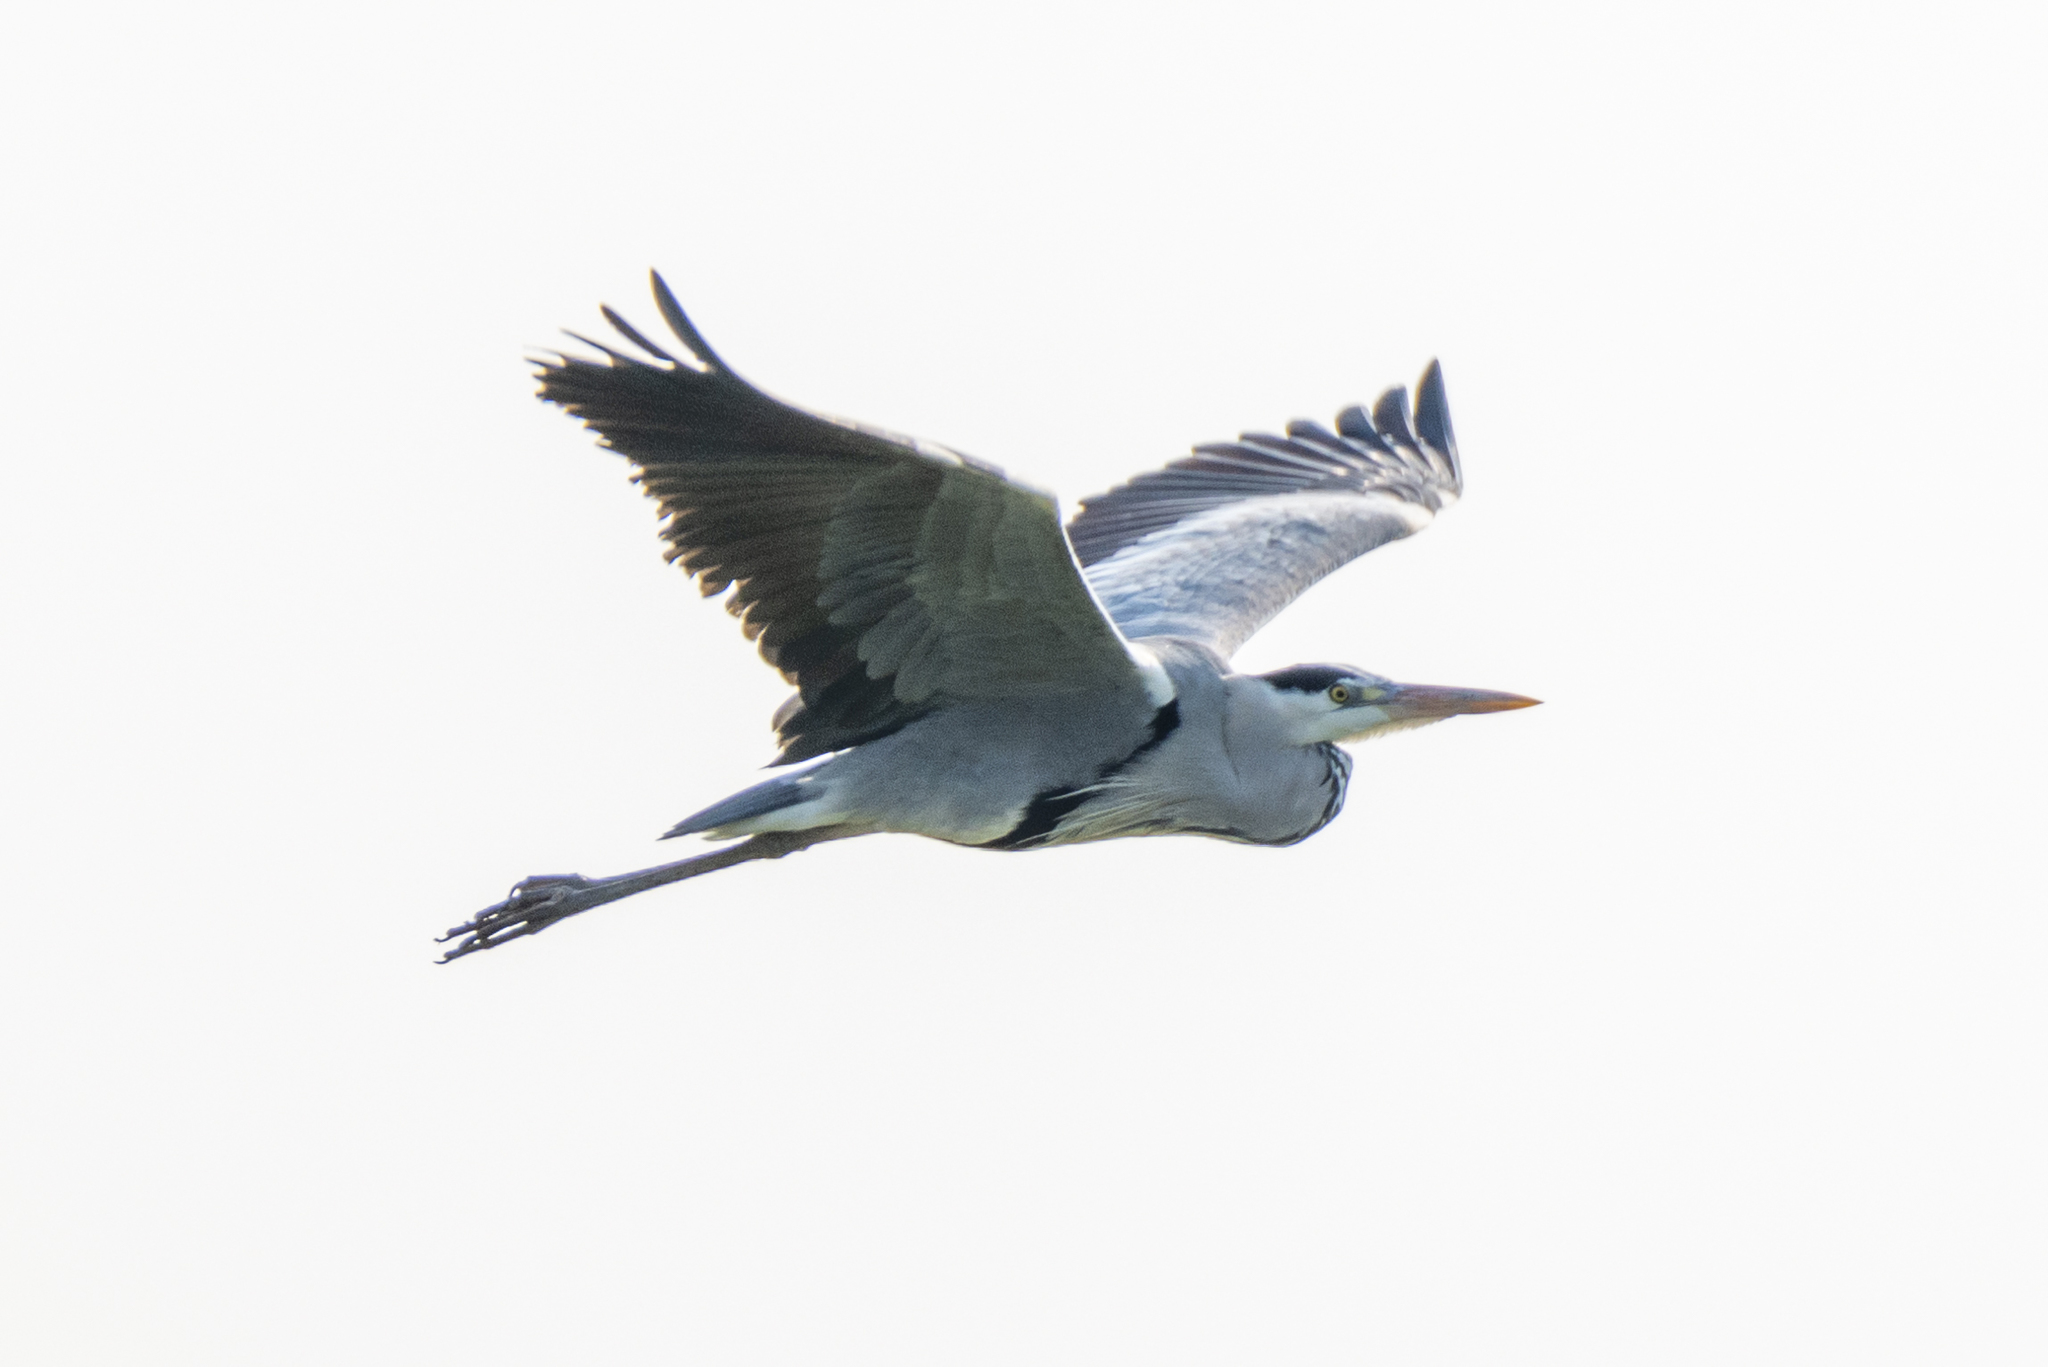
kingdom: Animalia
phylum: Chordata
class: Aves
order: Pelecaniformes
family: Ardeidae
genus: Ardea
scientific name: Ardea cinerea
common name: Grey heron
